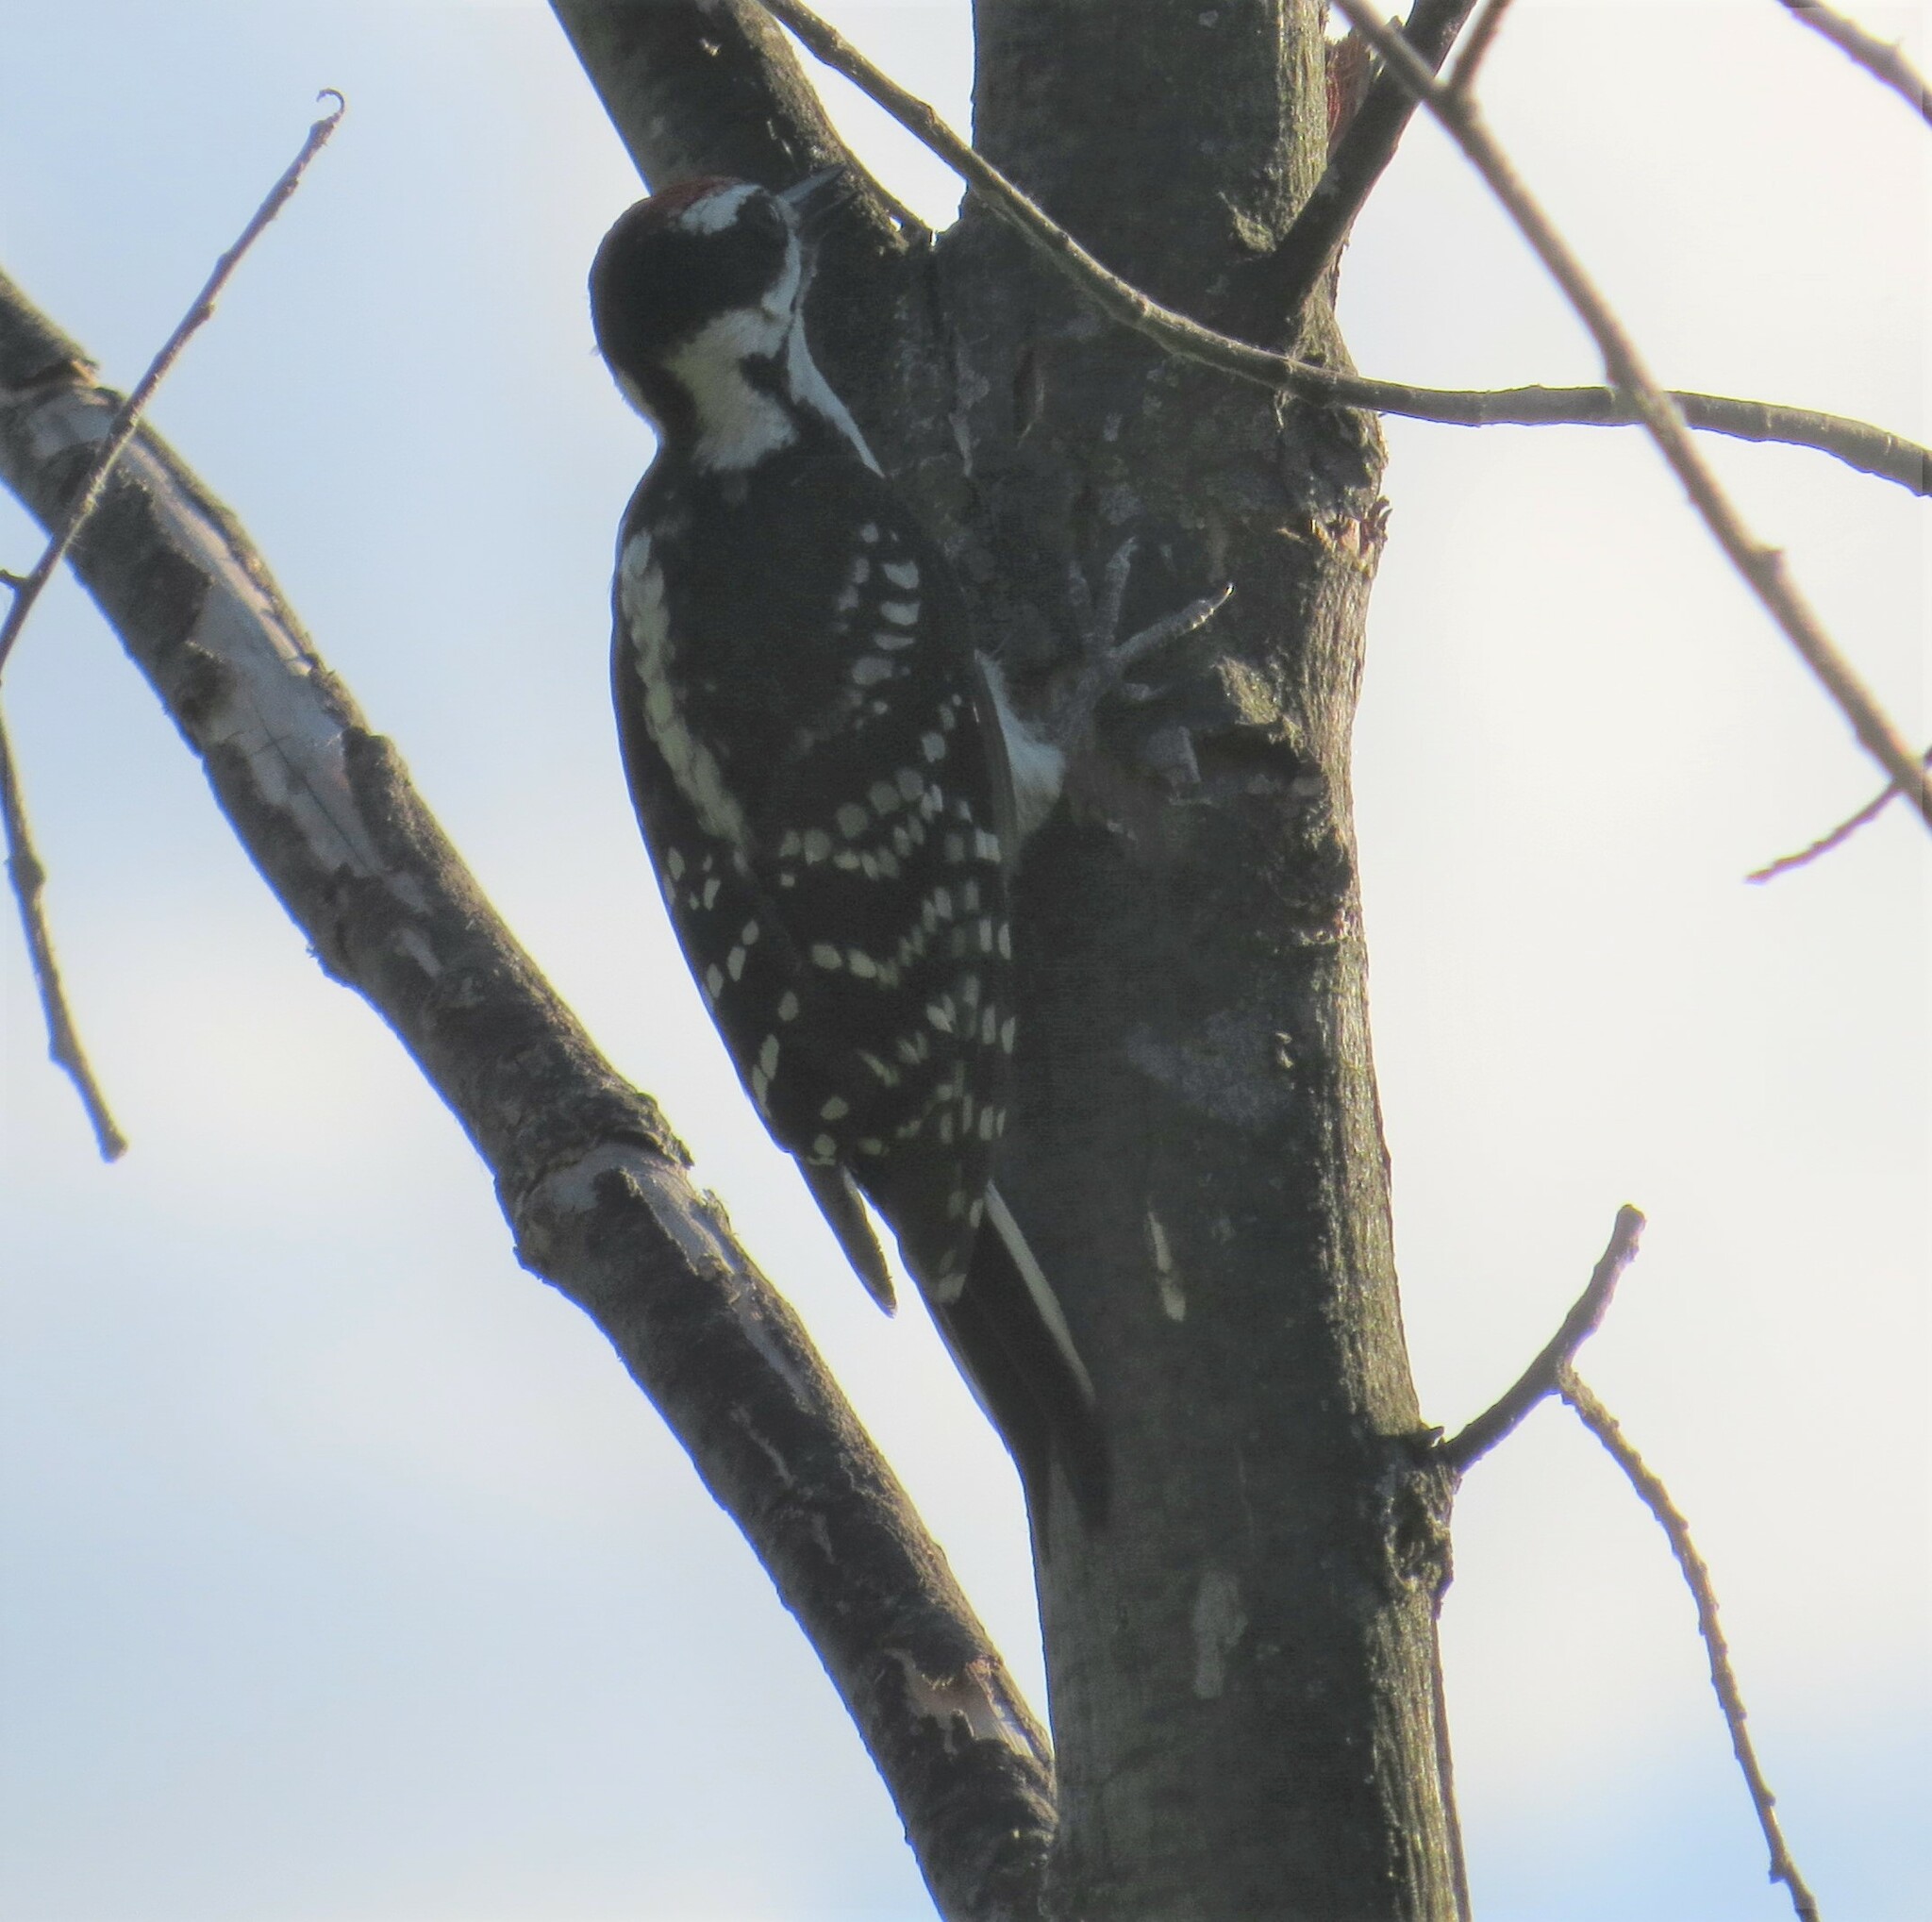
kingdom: Animalia
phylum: Chordata
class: Aves
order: Piciformes
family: Picidae
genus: Leuconotopicus
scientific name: Leuconotopicus villosus
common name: Hairy woodpecker
